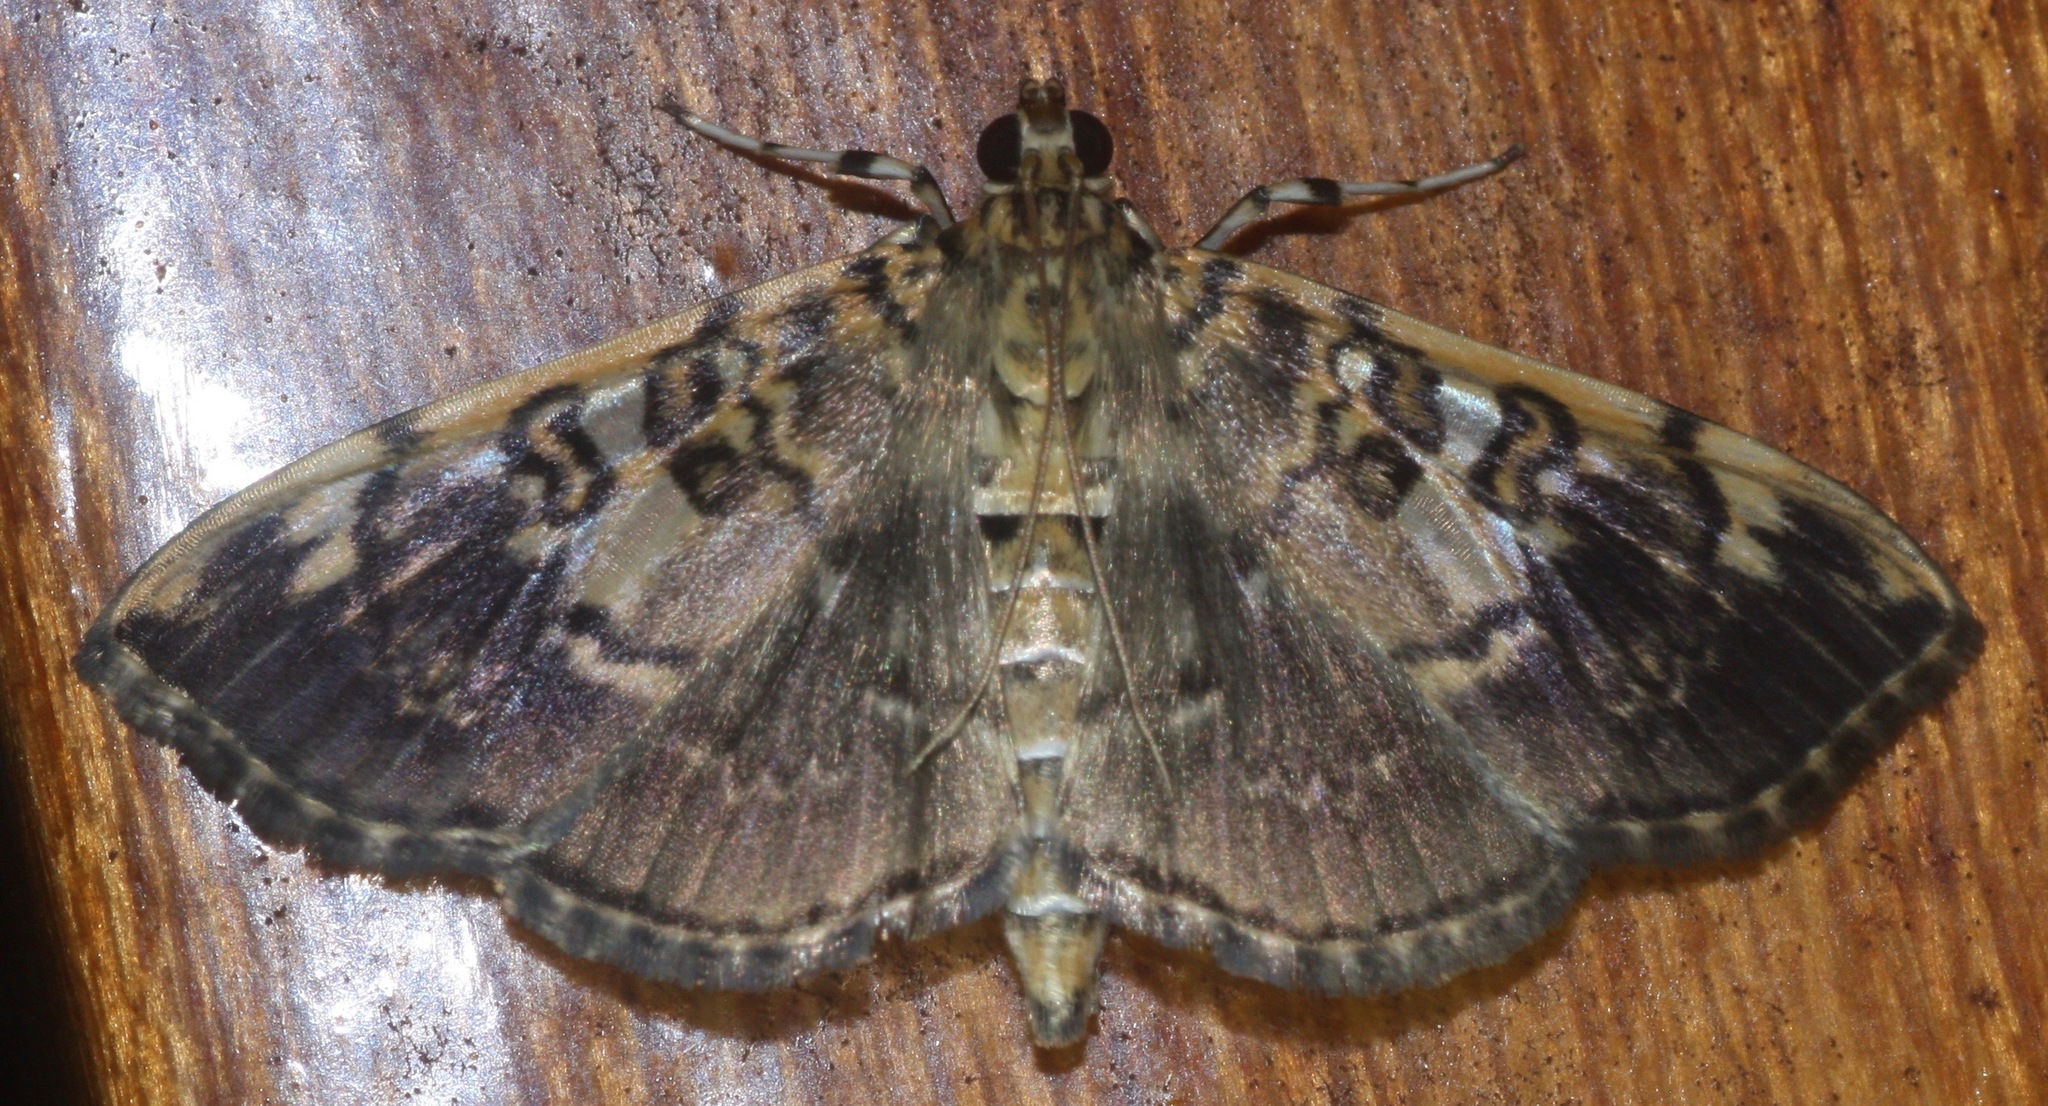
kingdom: Animalia
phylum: Arthropoda
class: Insecta
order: Lepidoptera
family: Crambidae
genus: Pantographa
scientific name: Pantographa
